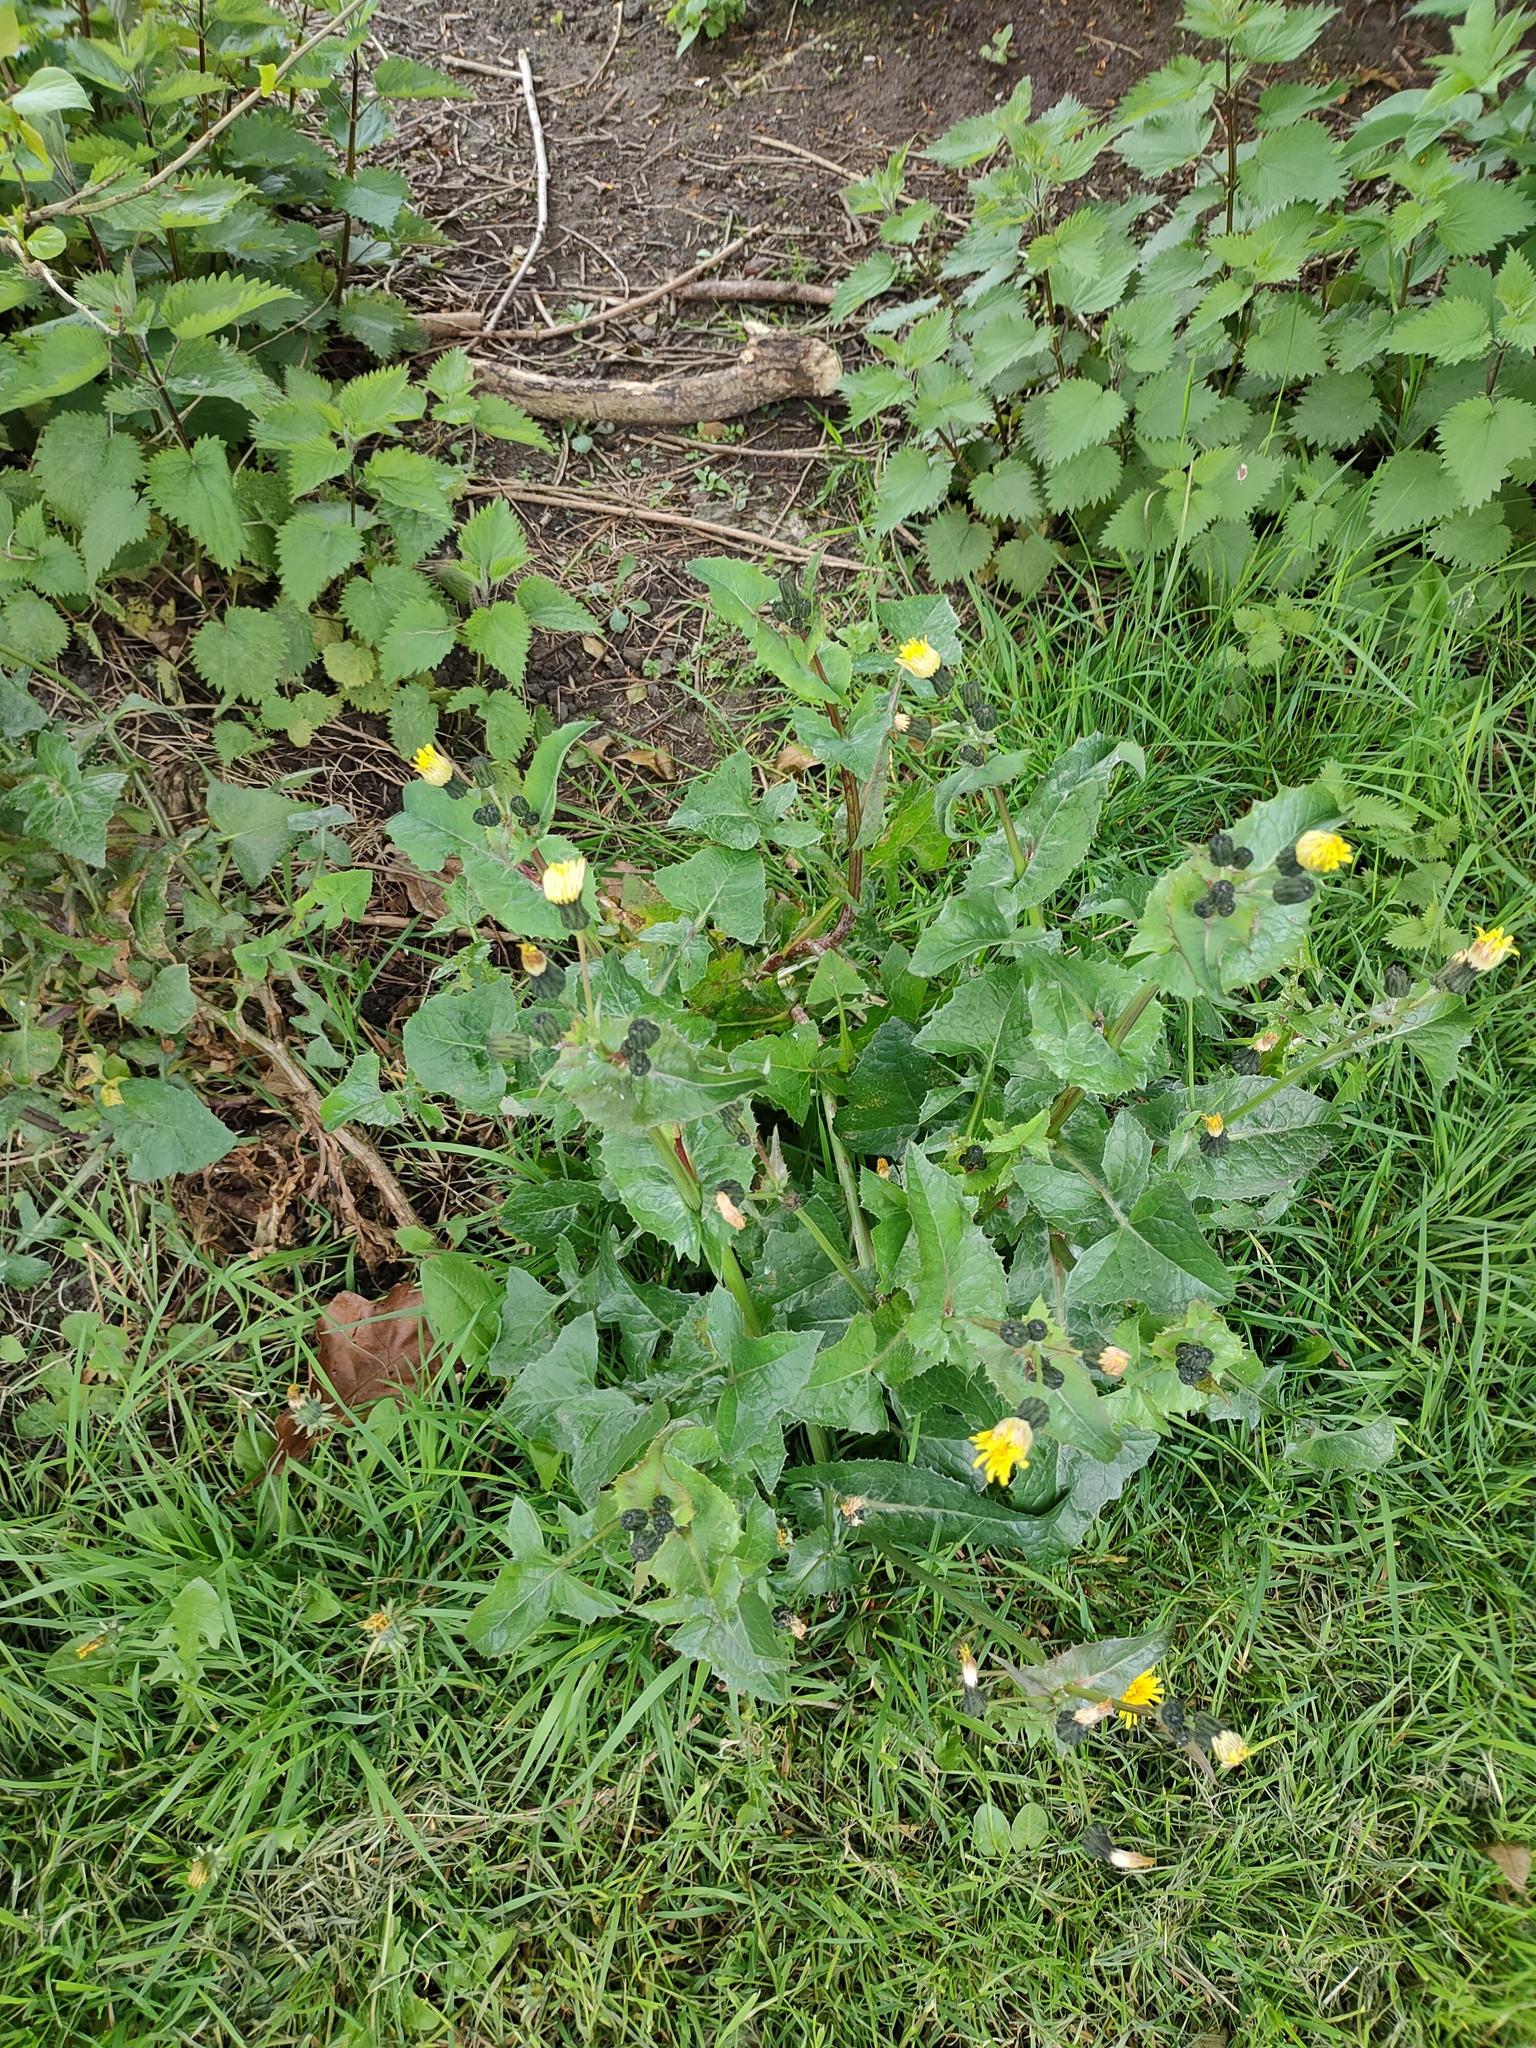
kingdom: Plantae
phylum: Tracheophyta
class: Magnoliopsida
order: Asterales
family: Asteraceae
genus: Sonchus
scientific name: Sonchus oleraceus
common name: Common sowthistle
